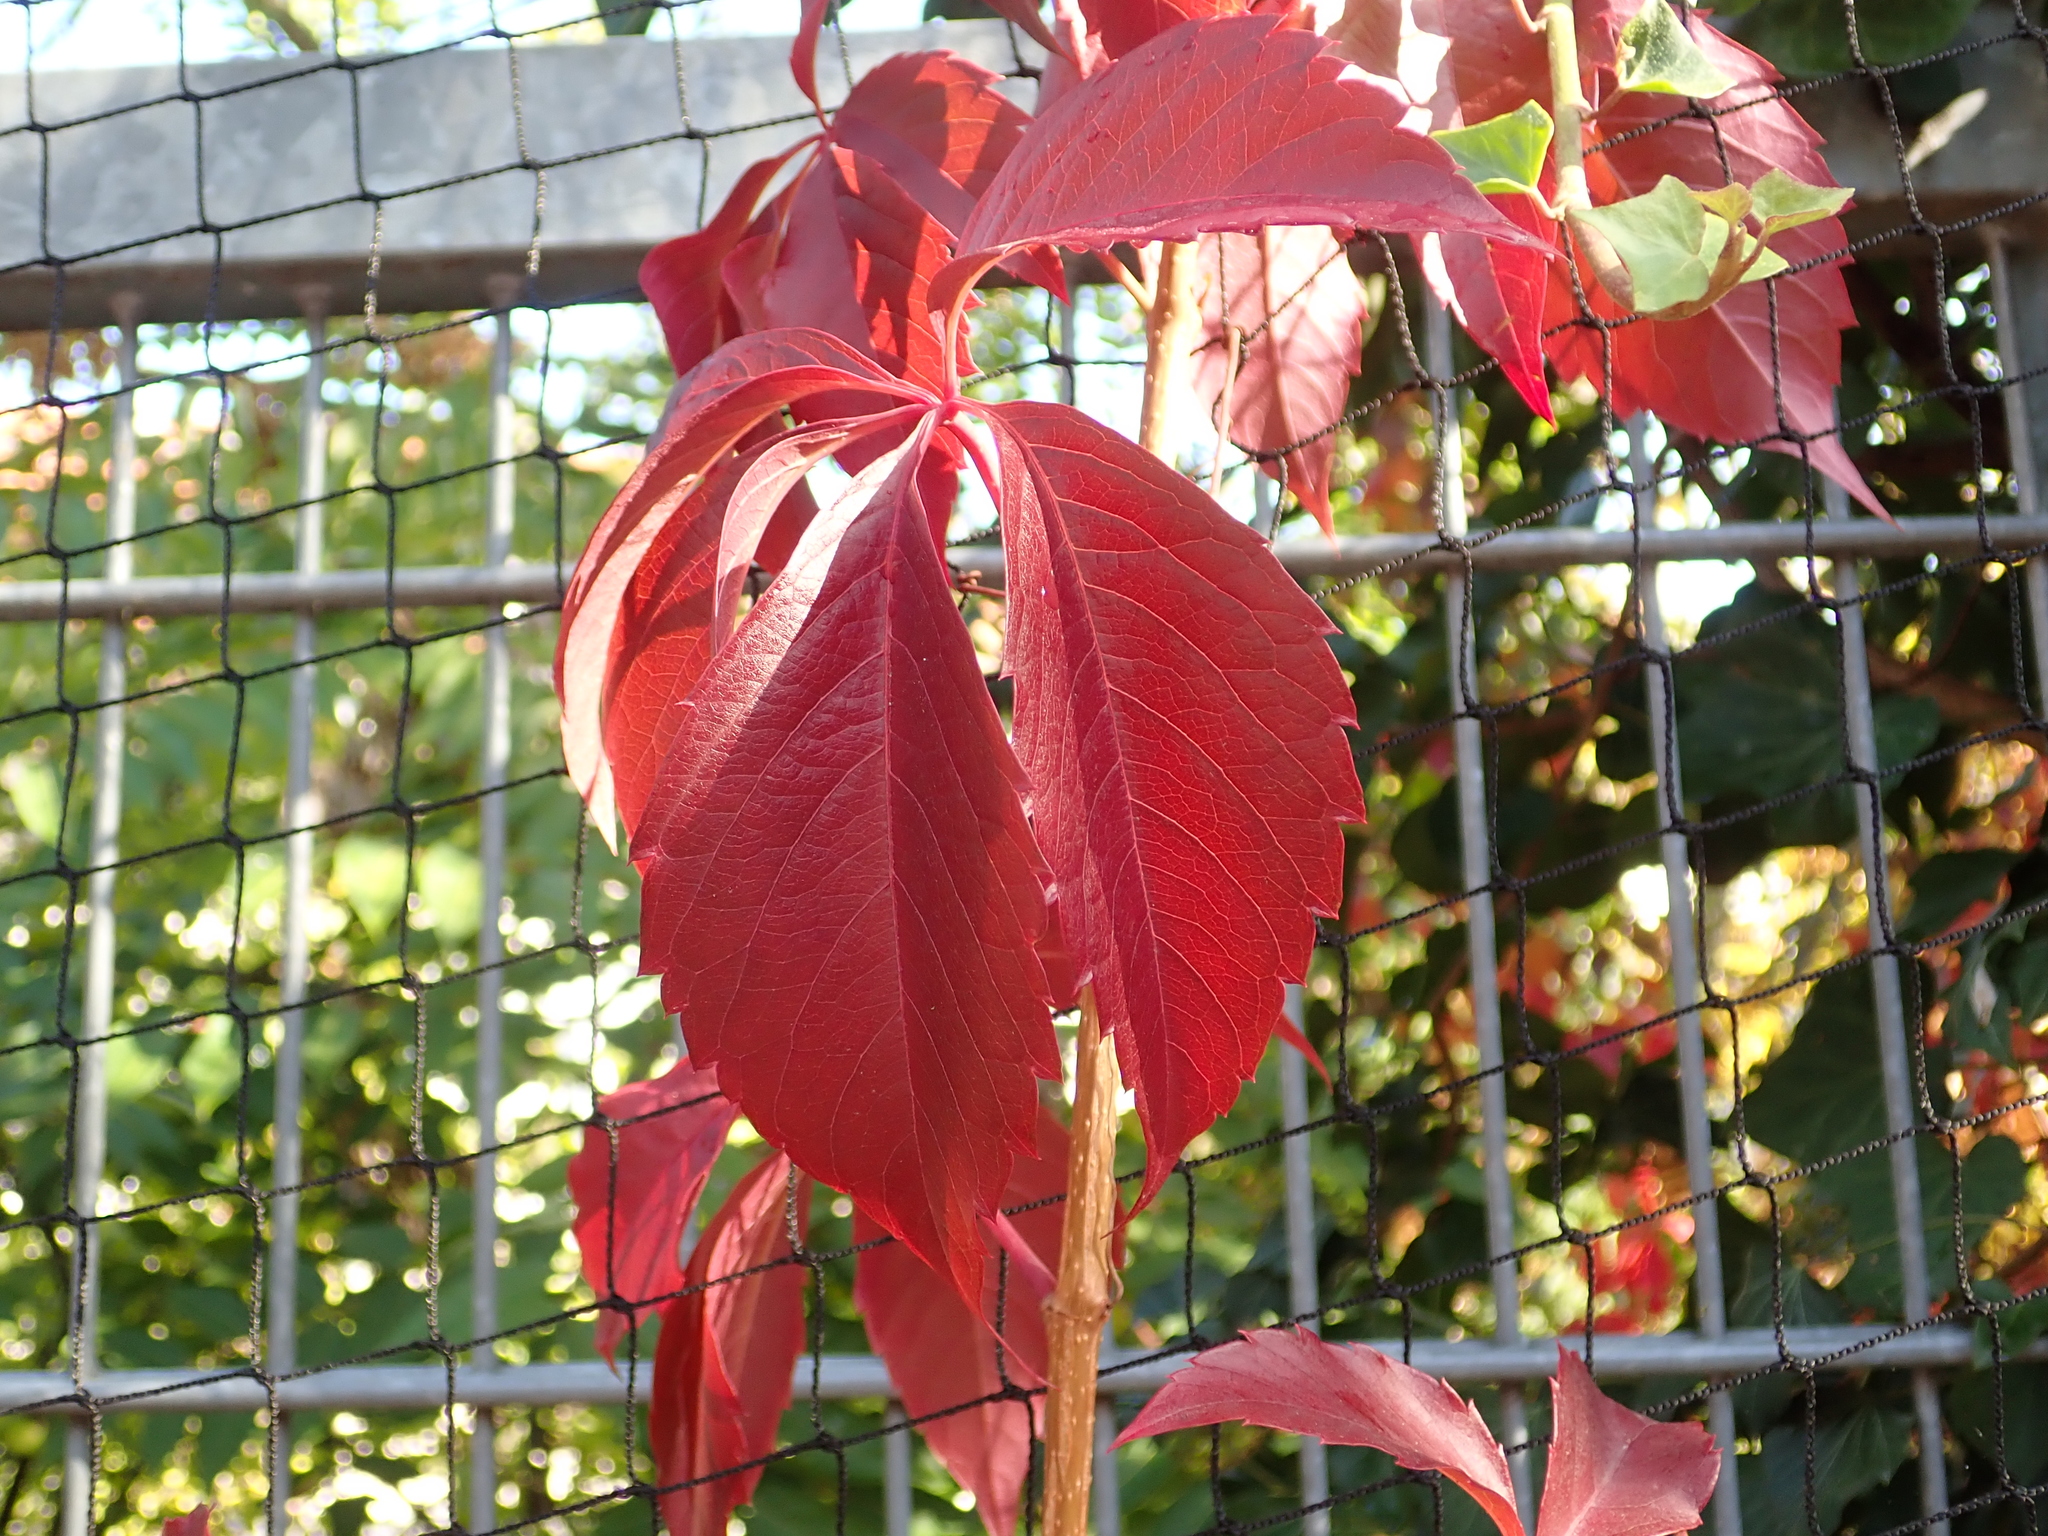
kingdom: Plantae
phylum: Tracheophyta
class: Magnoliopsida
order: Vitales
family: Vitaceae
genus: Parthenocissus
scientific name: Parthenocissus quinquefolia
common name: Virginia-creeper
